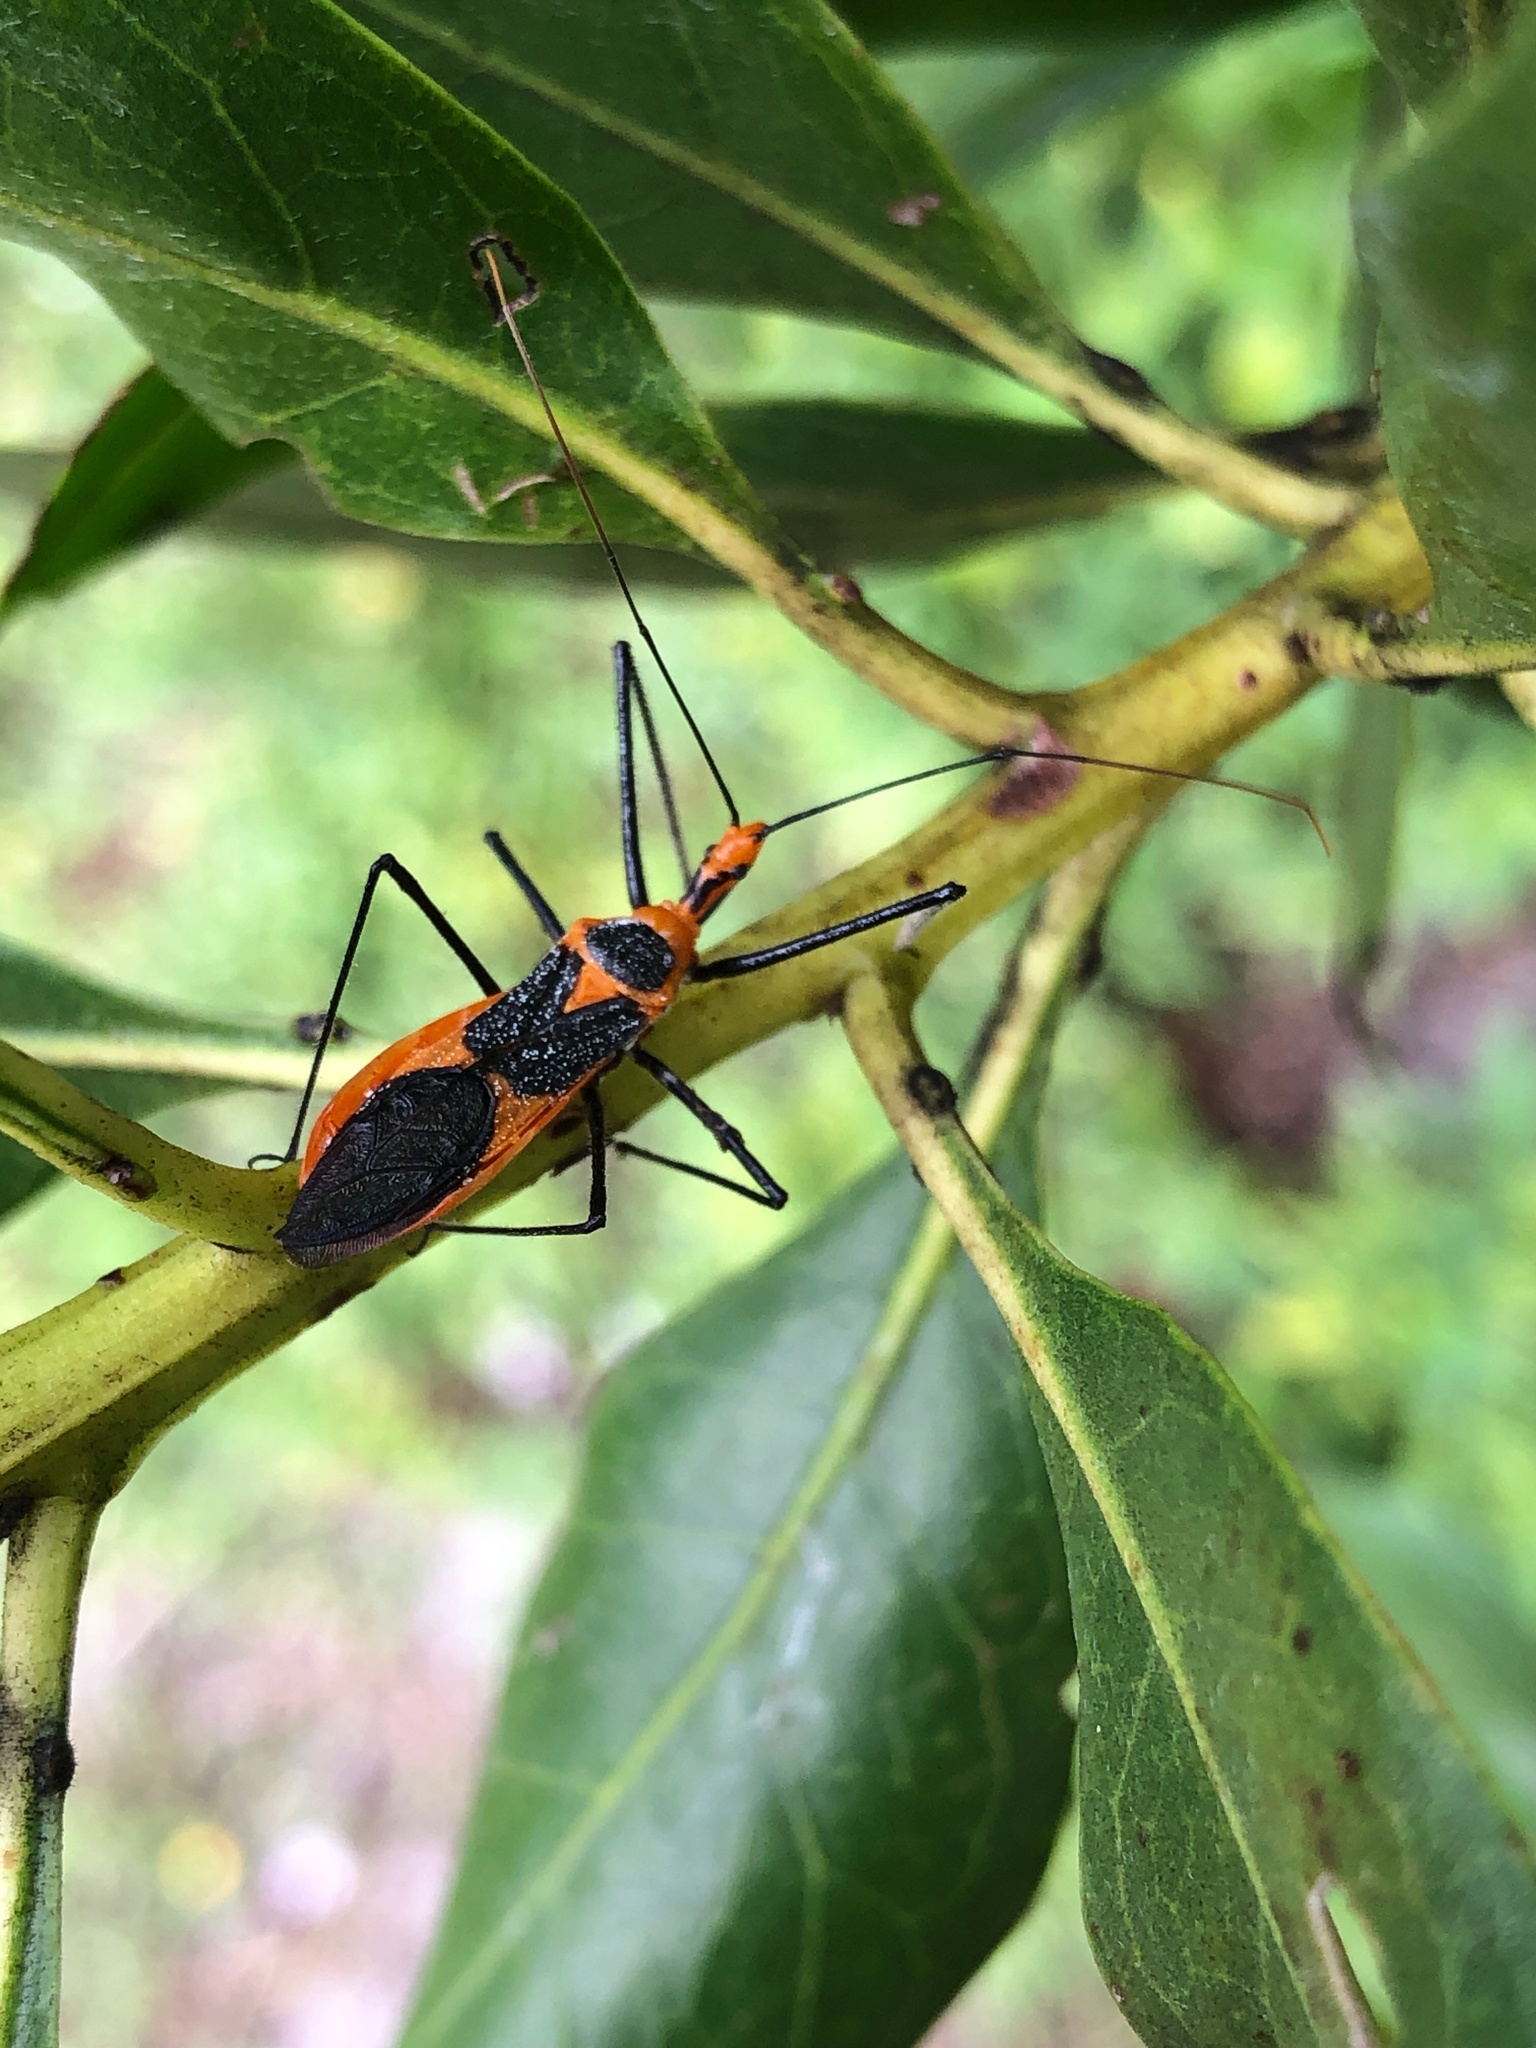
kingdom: Animalia
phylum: Arthropoda
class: Insecta
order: Hemiptera
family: Reduviidae
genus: Zelus
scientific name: Zelus longipes
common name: Milkweed assassin bug
